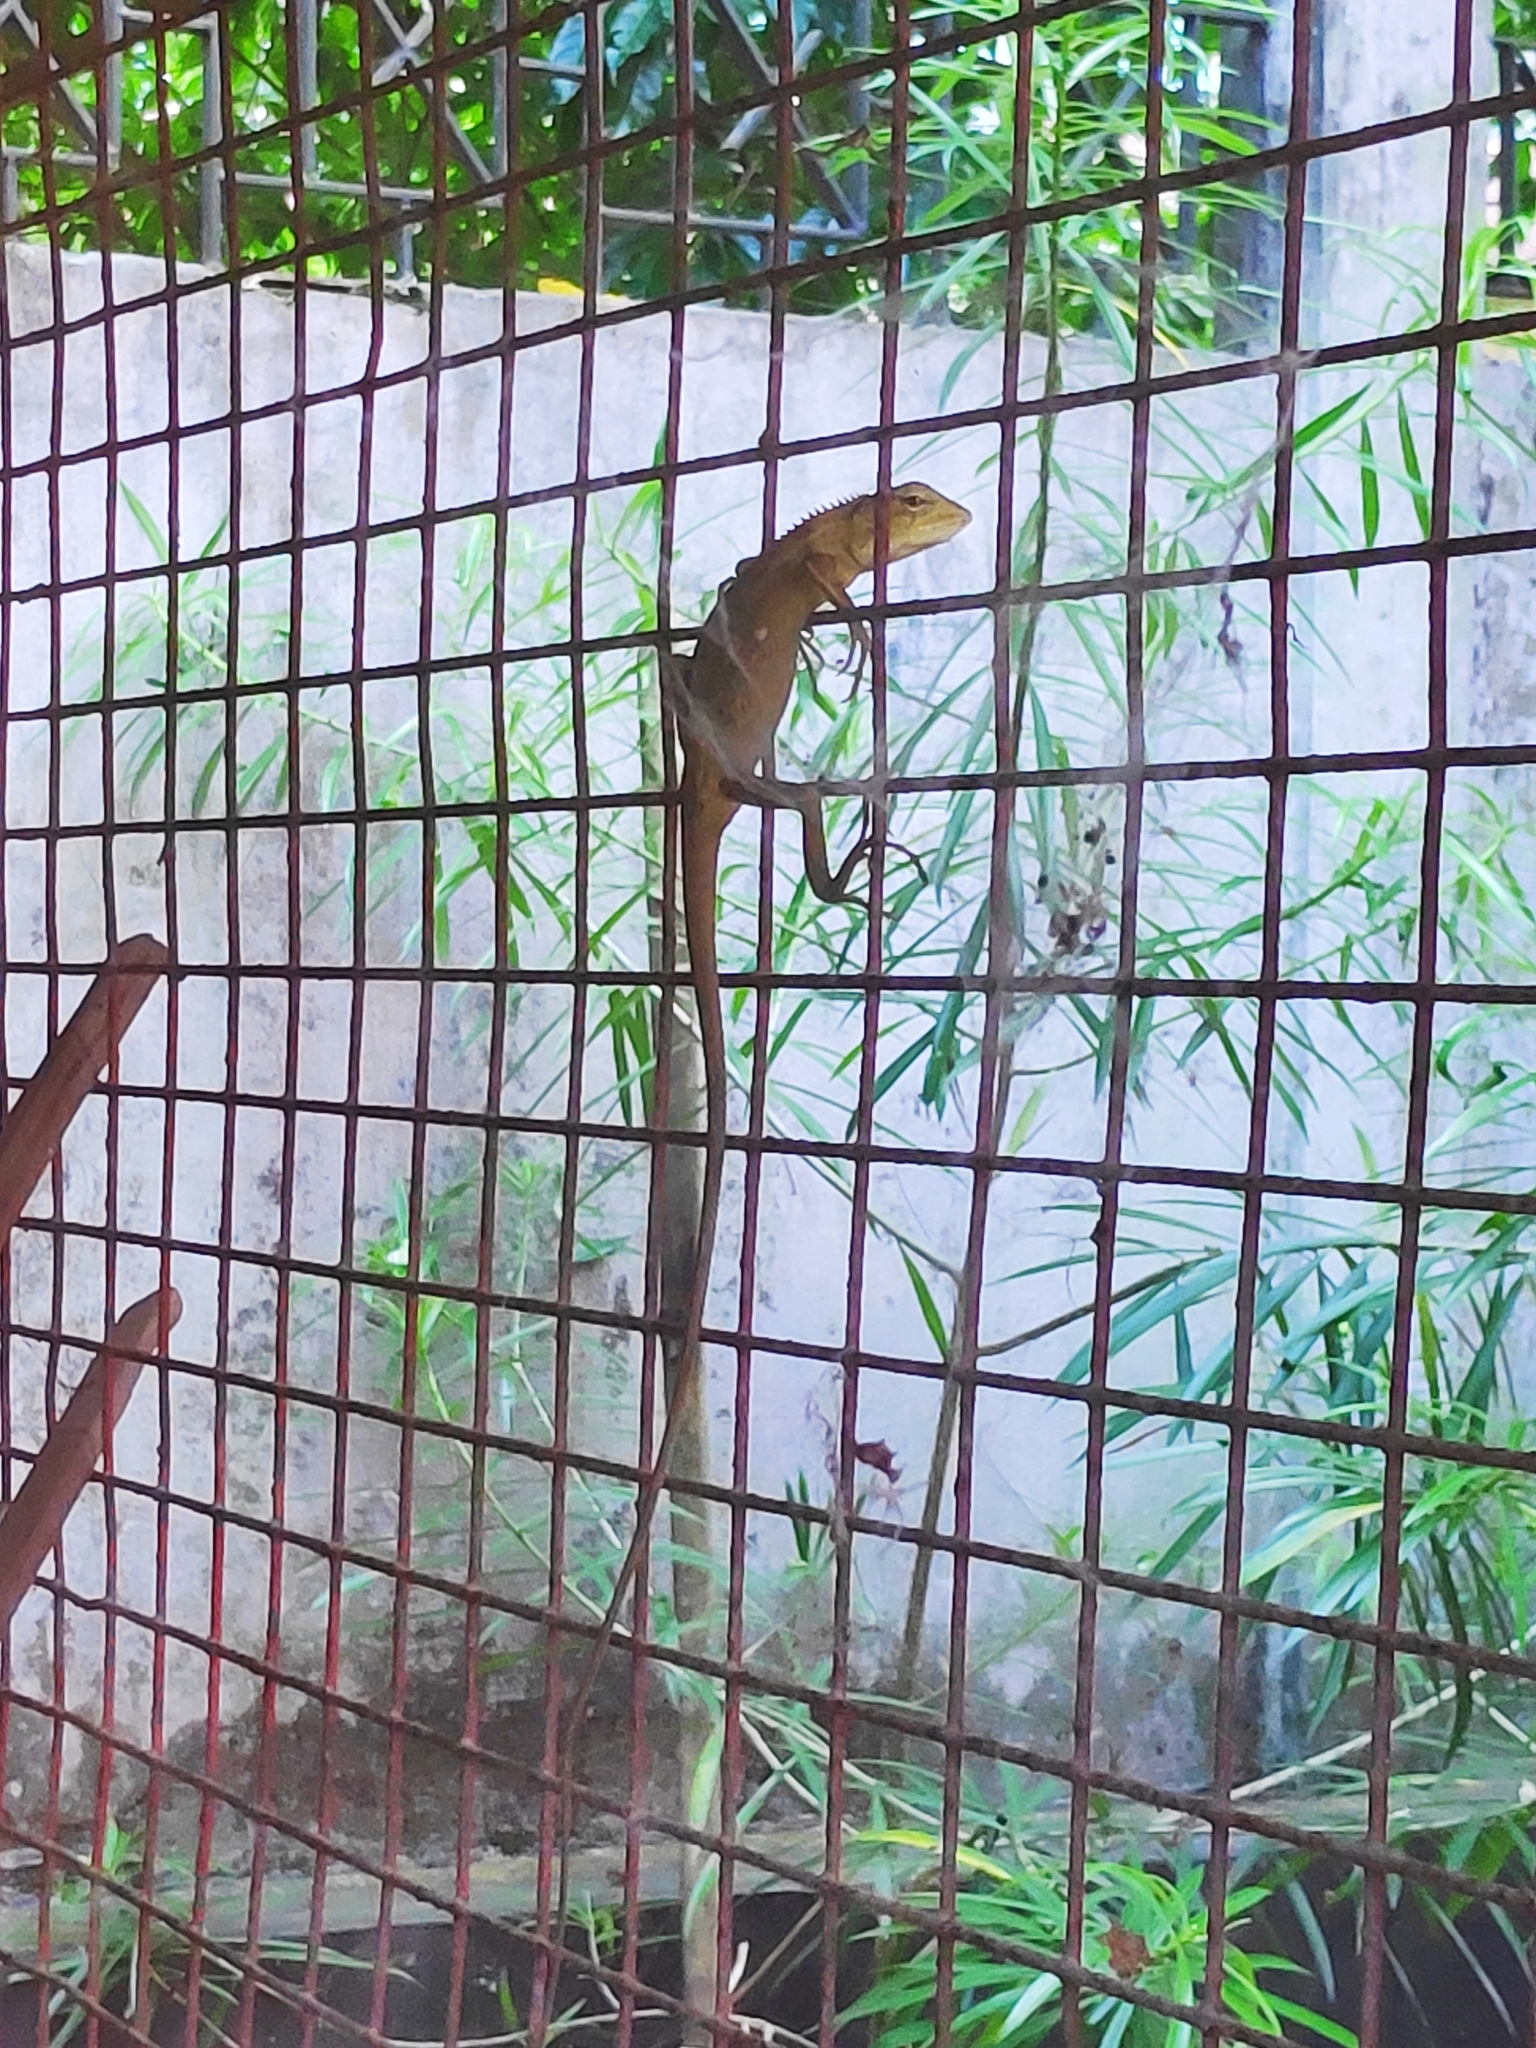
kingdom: Animalia
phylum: Chordata
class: Squamata
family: Agamidae
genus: Calotes
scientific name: Calotes versicolor
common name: Oriental garden lizard
